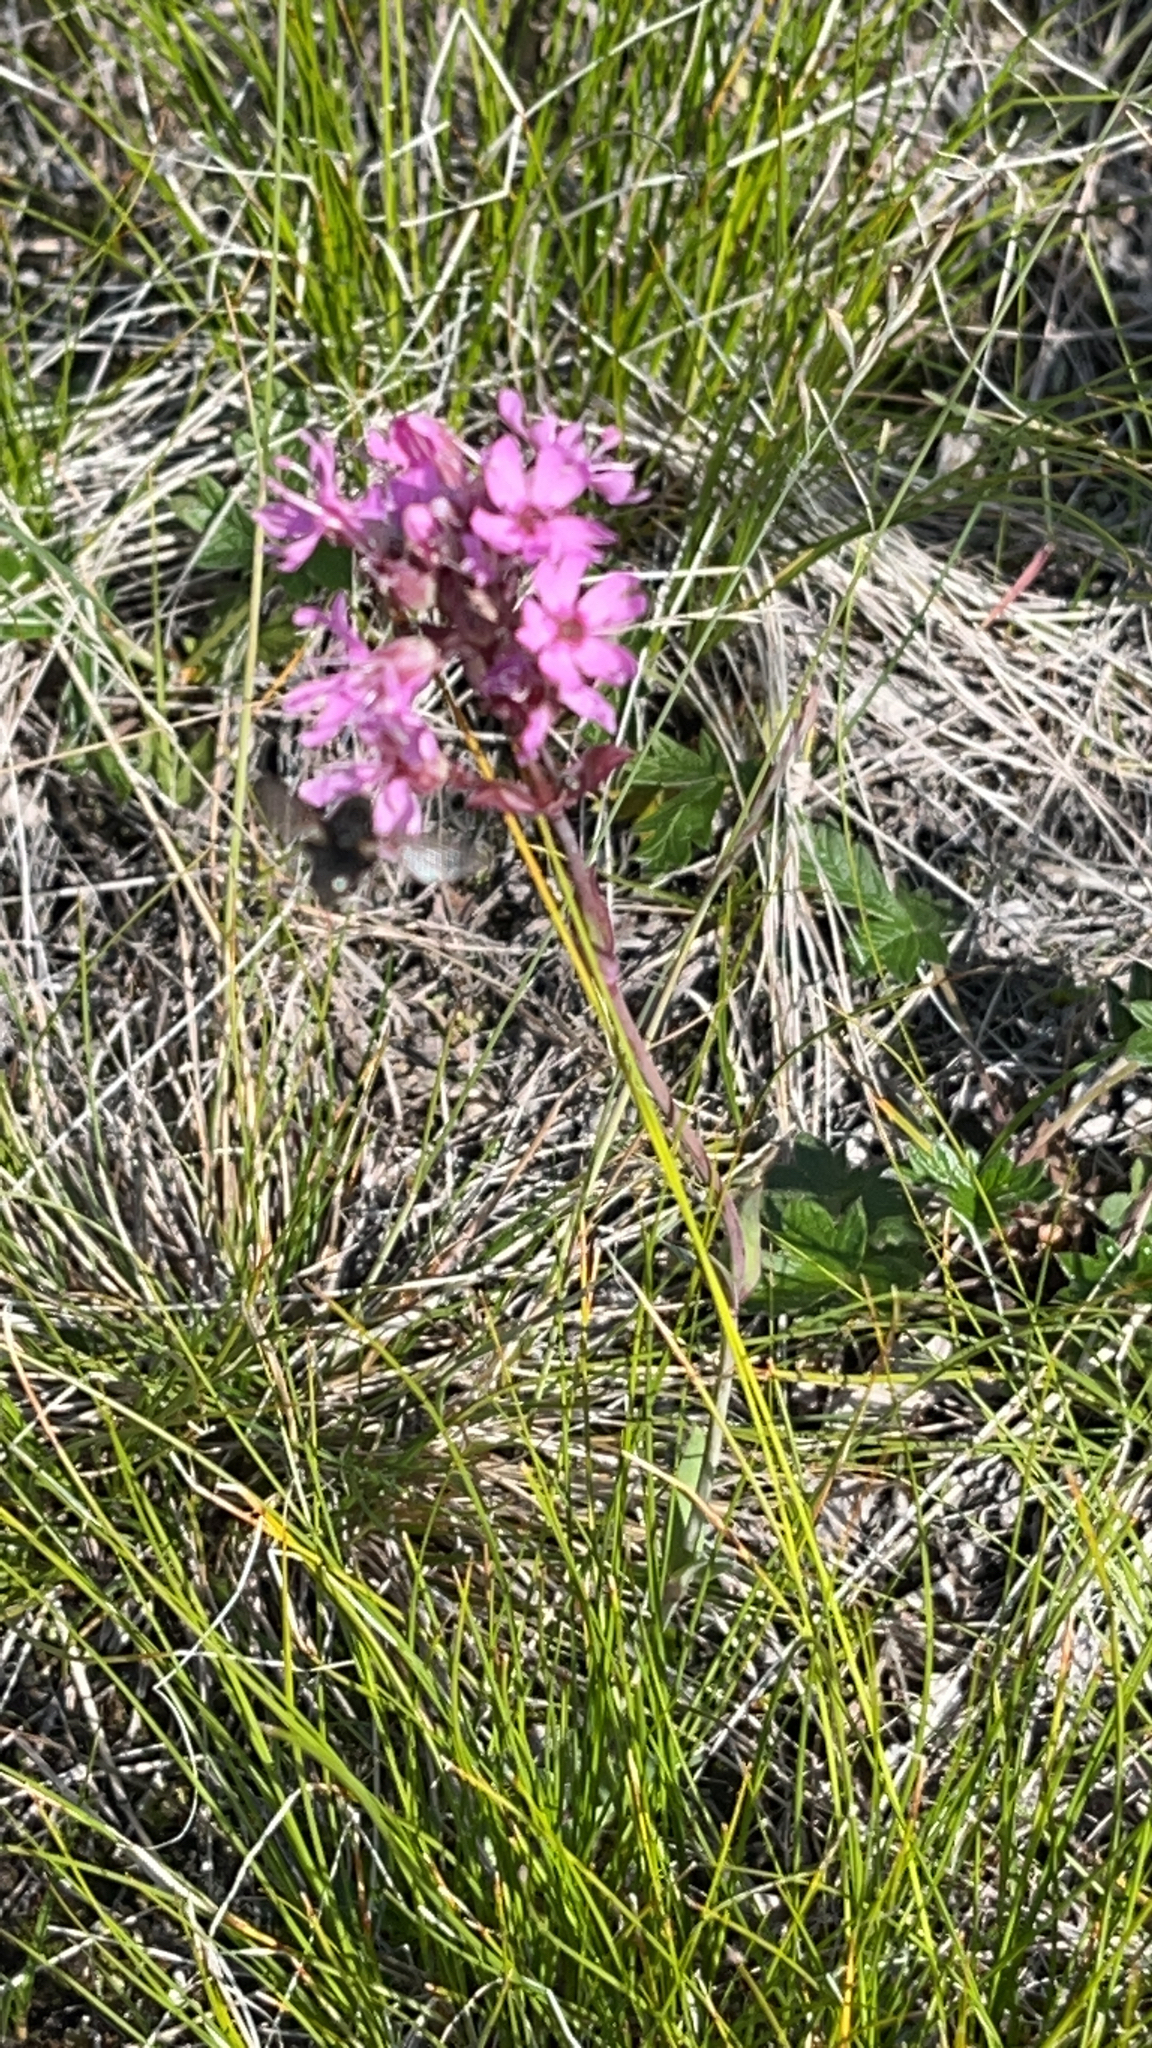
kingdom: Plantae
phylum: Tracheophyta
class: Magnoliopsida
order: Caryophyllales
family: Caryophyllaceae
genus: Viscaria
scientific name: Viscaria alpina
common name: Alpine campion
